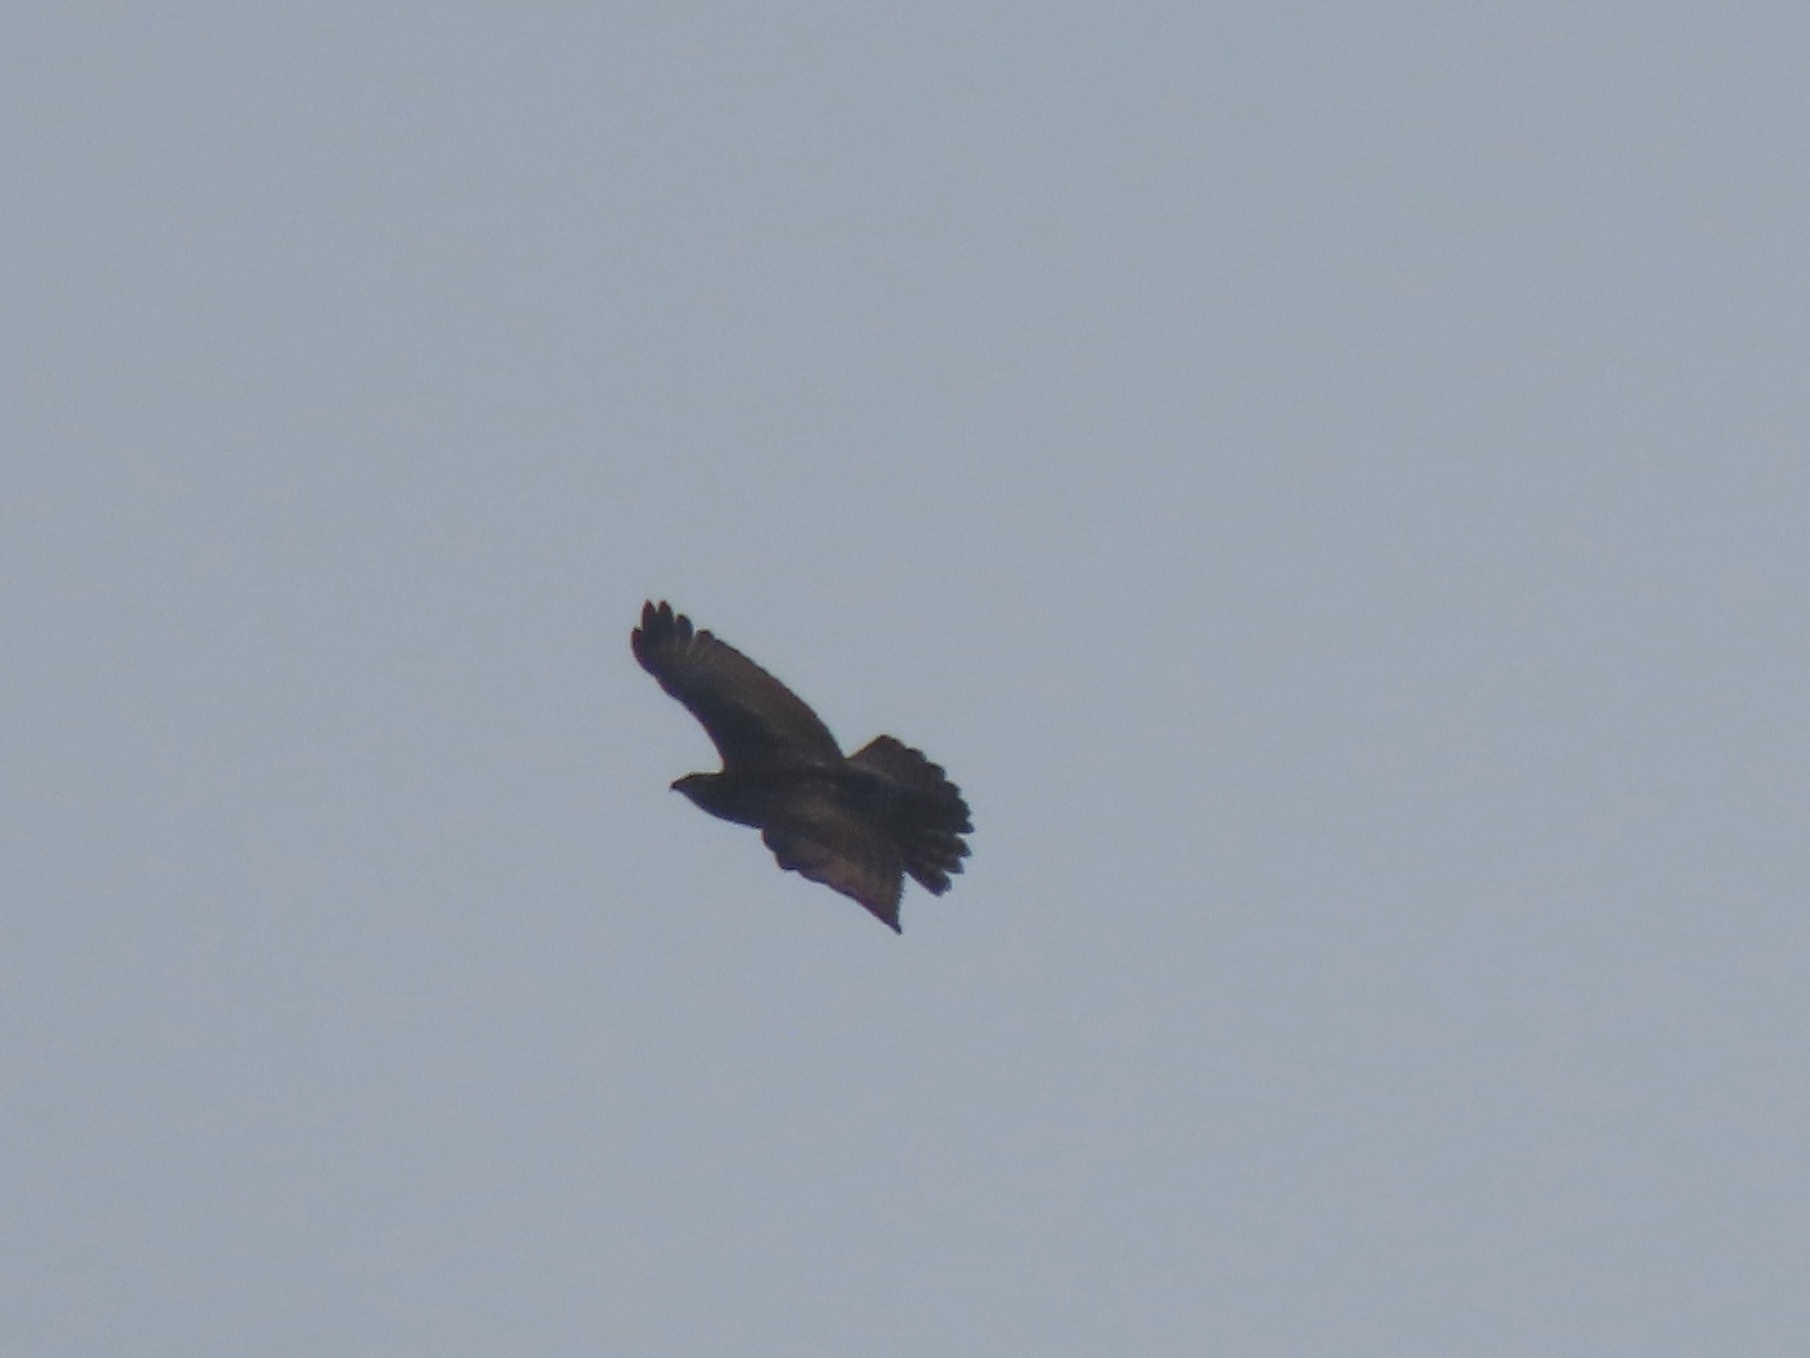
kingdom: Animalia
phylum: Chordata
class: Aves
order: Accipitriformes
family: Accipitridae
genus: Buteo
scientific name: Buteo jamaicensis
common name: Red-tailed hawk
